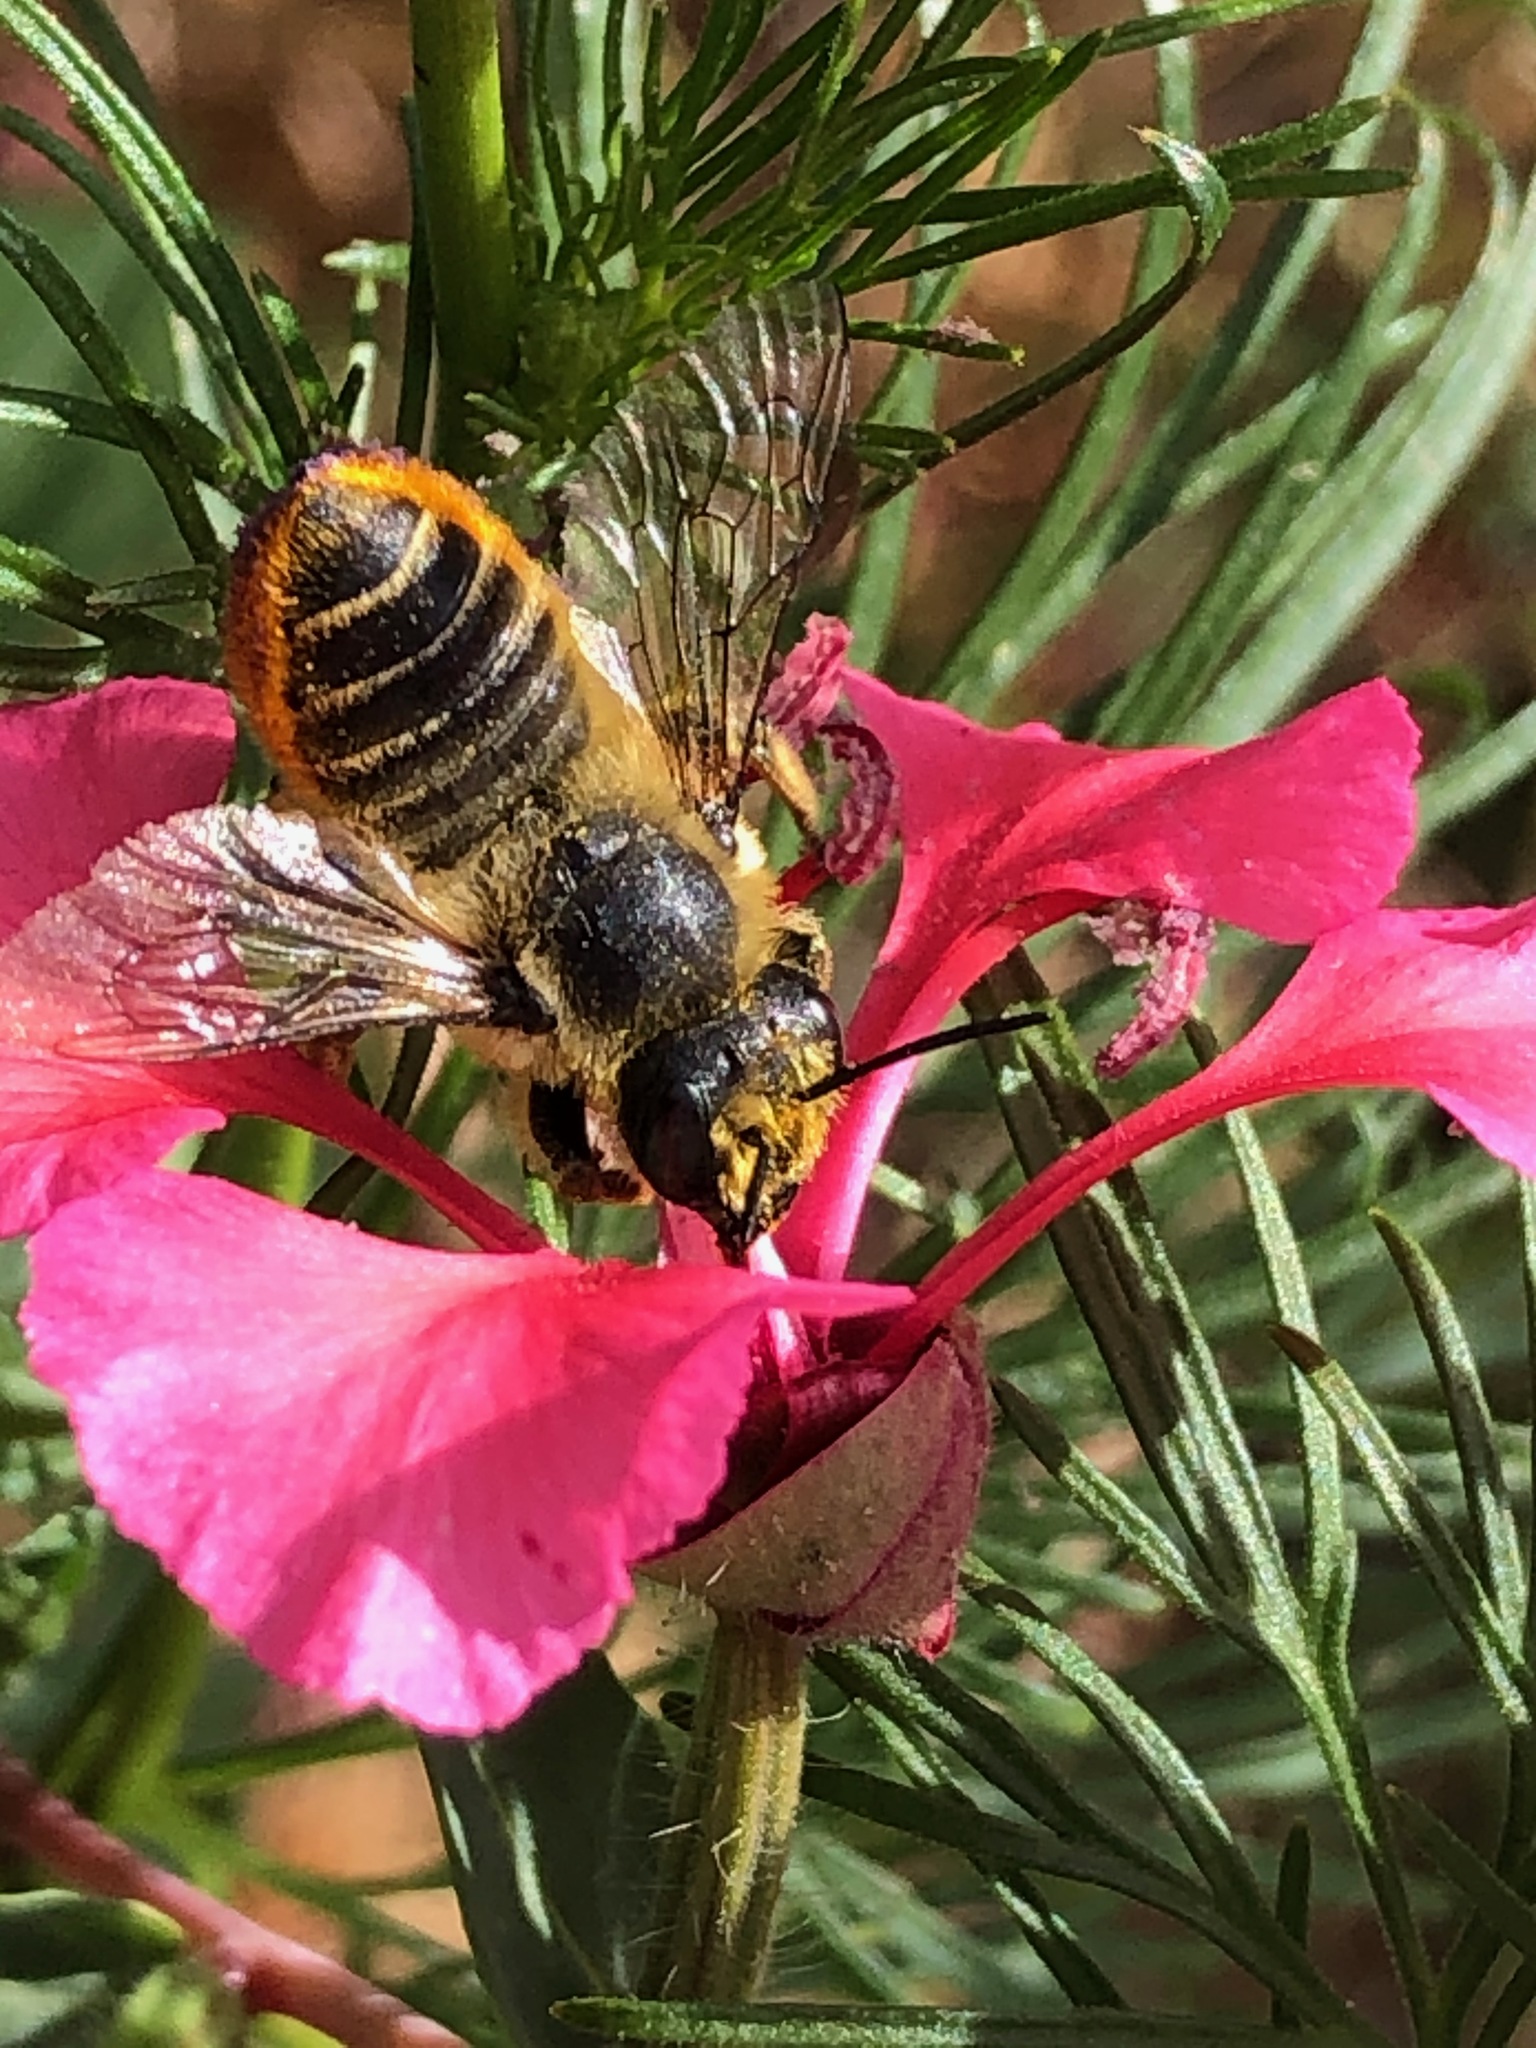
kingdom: Animalia
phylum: Arthropoda
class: Insecta
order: Hymenoptera
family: Megachilidae
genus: Megachile
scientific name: Megachile perihirta
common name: Western leafcutter
